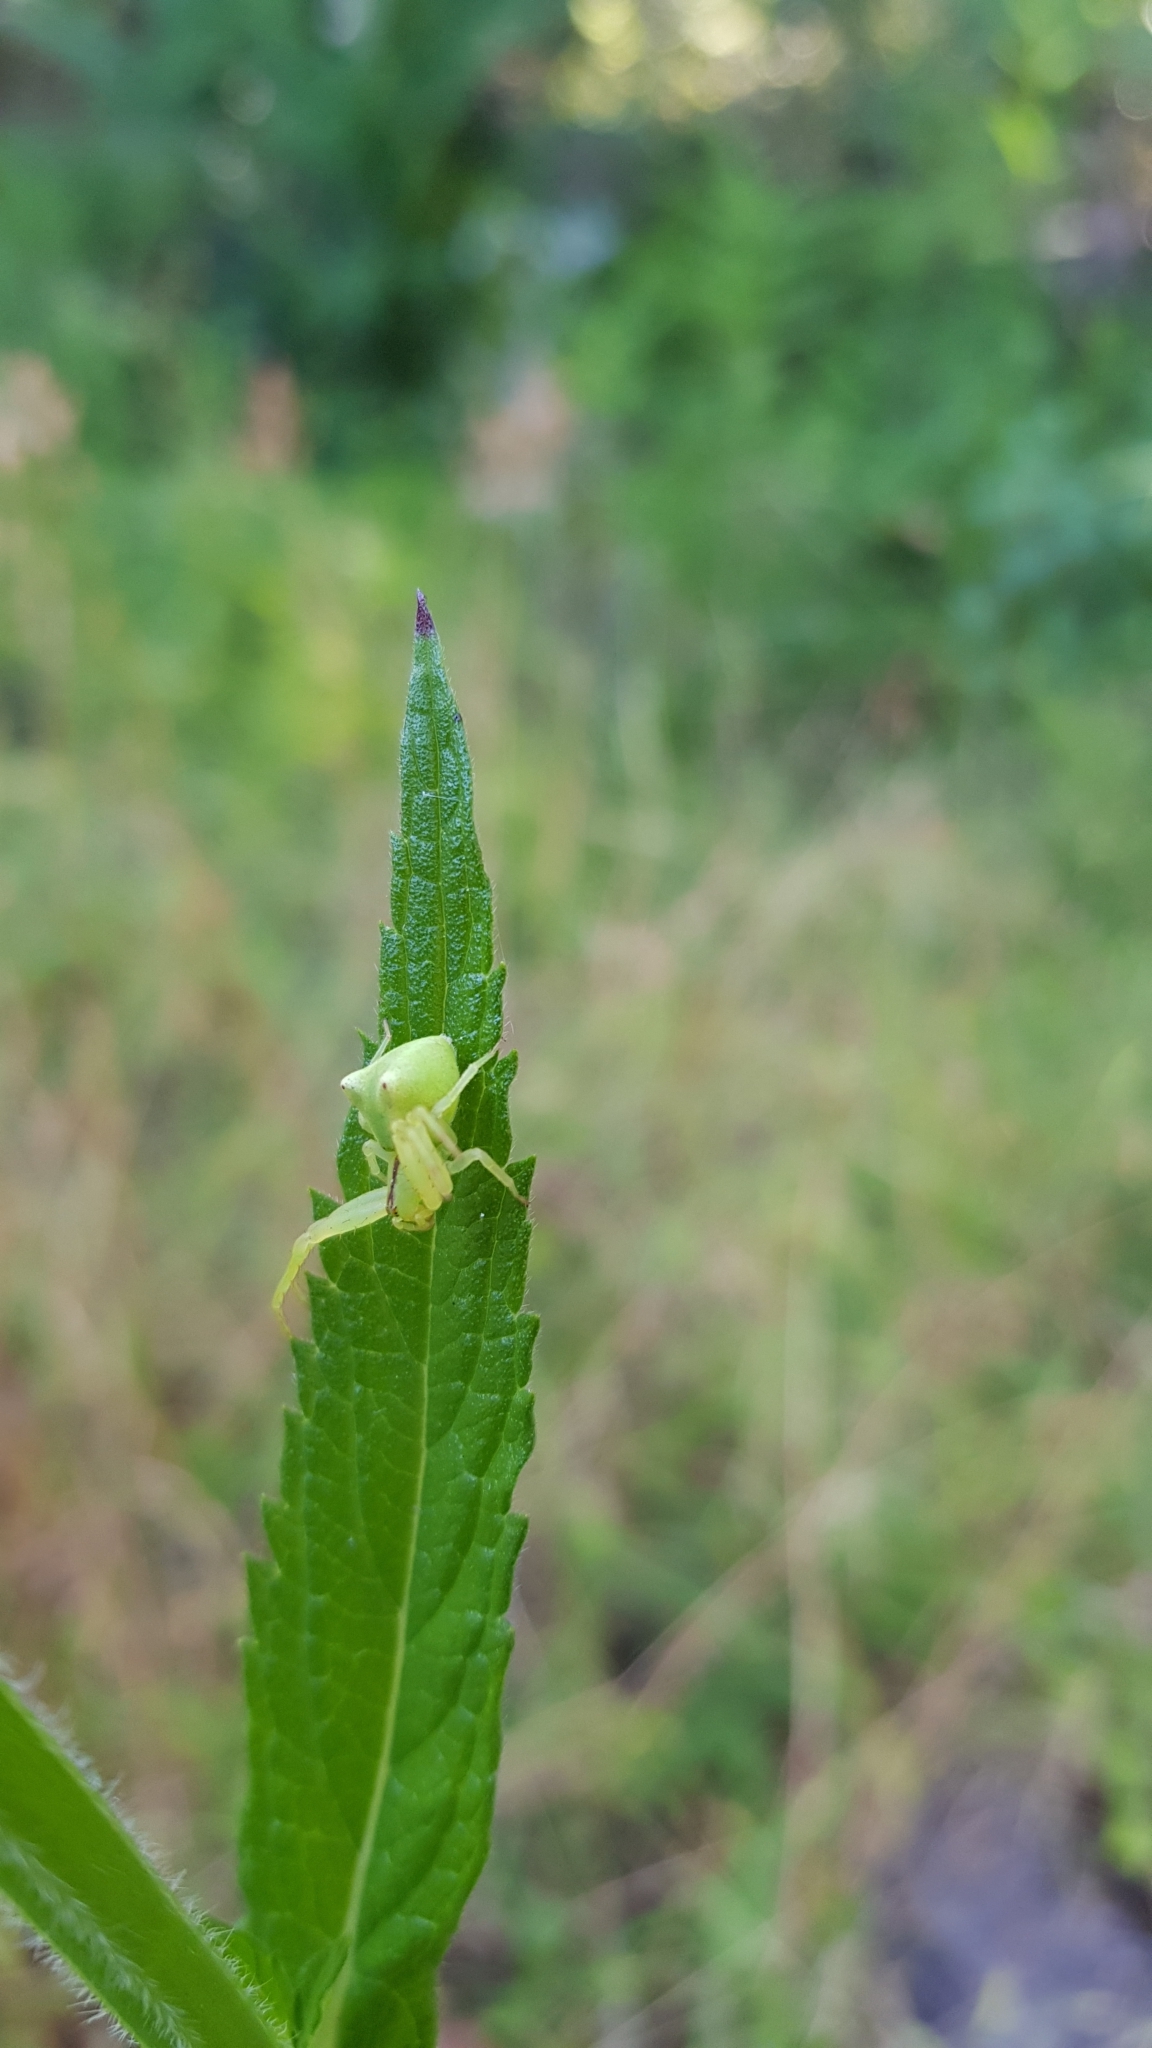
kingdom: Animalia
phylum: Arthropoda
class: Arachnida
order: Araneae
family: Thomisidae
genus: Sidymella
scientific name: Sidymella rubrosignata
